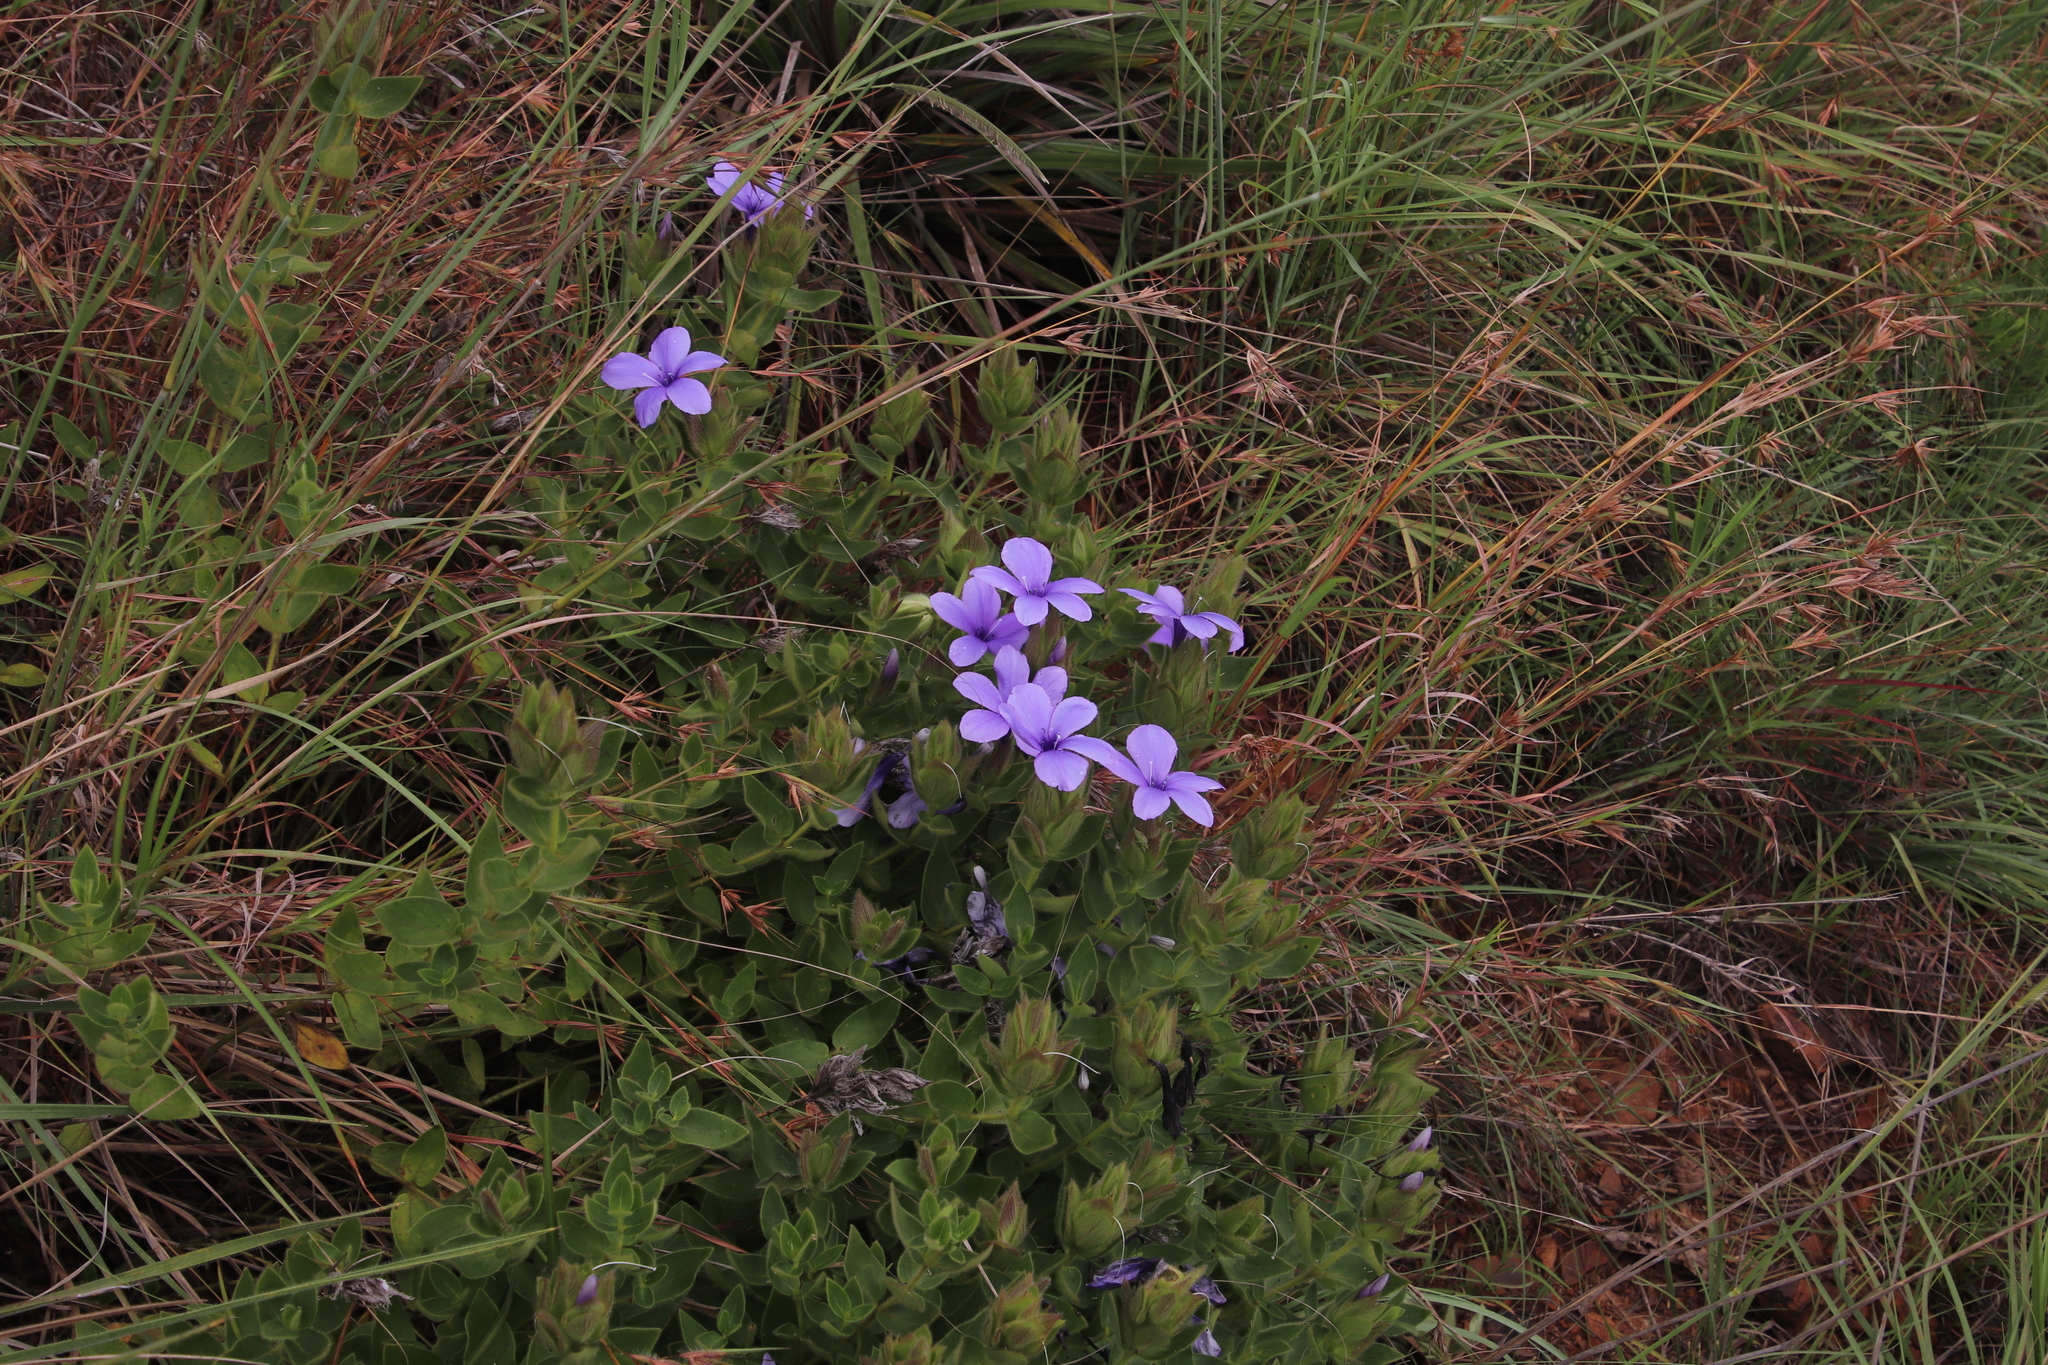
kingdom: Plantae
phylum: Tracheophyta
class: Magnoliopsida
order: Lamiales
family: Acanthaceae
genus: Barleria
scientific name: Barleria ovata
